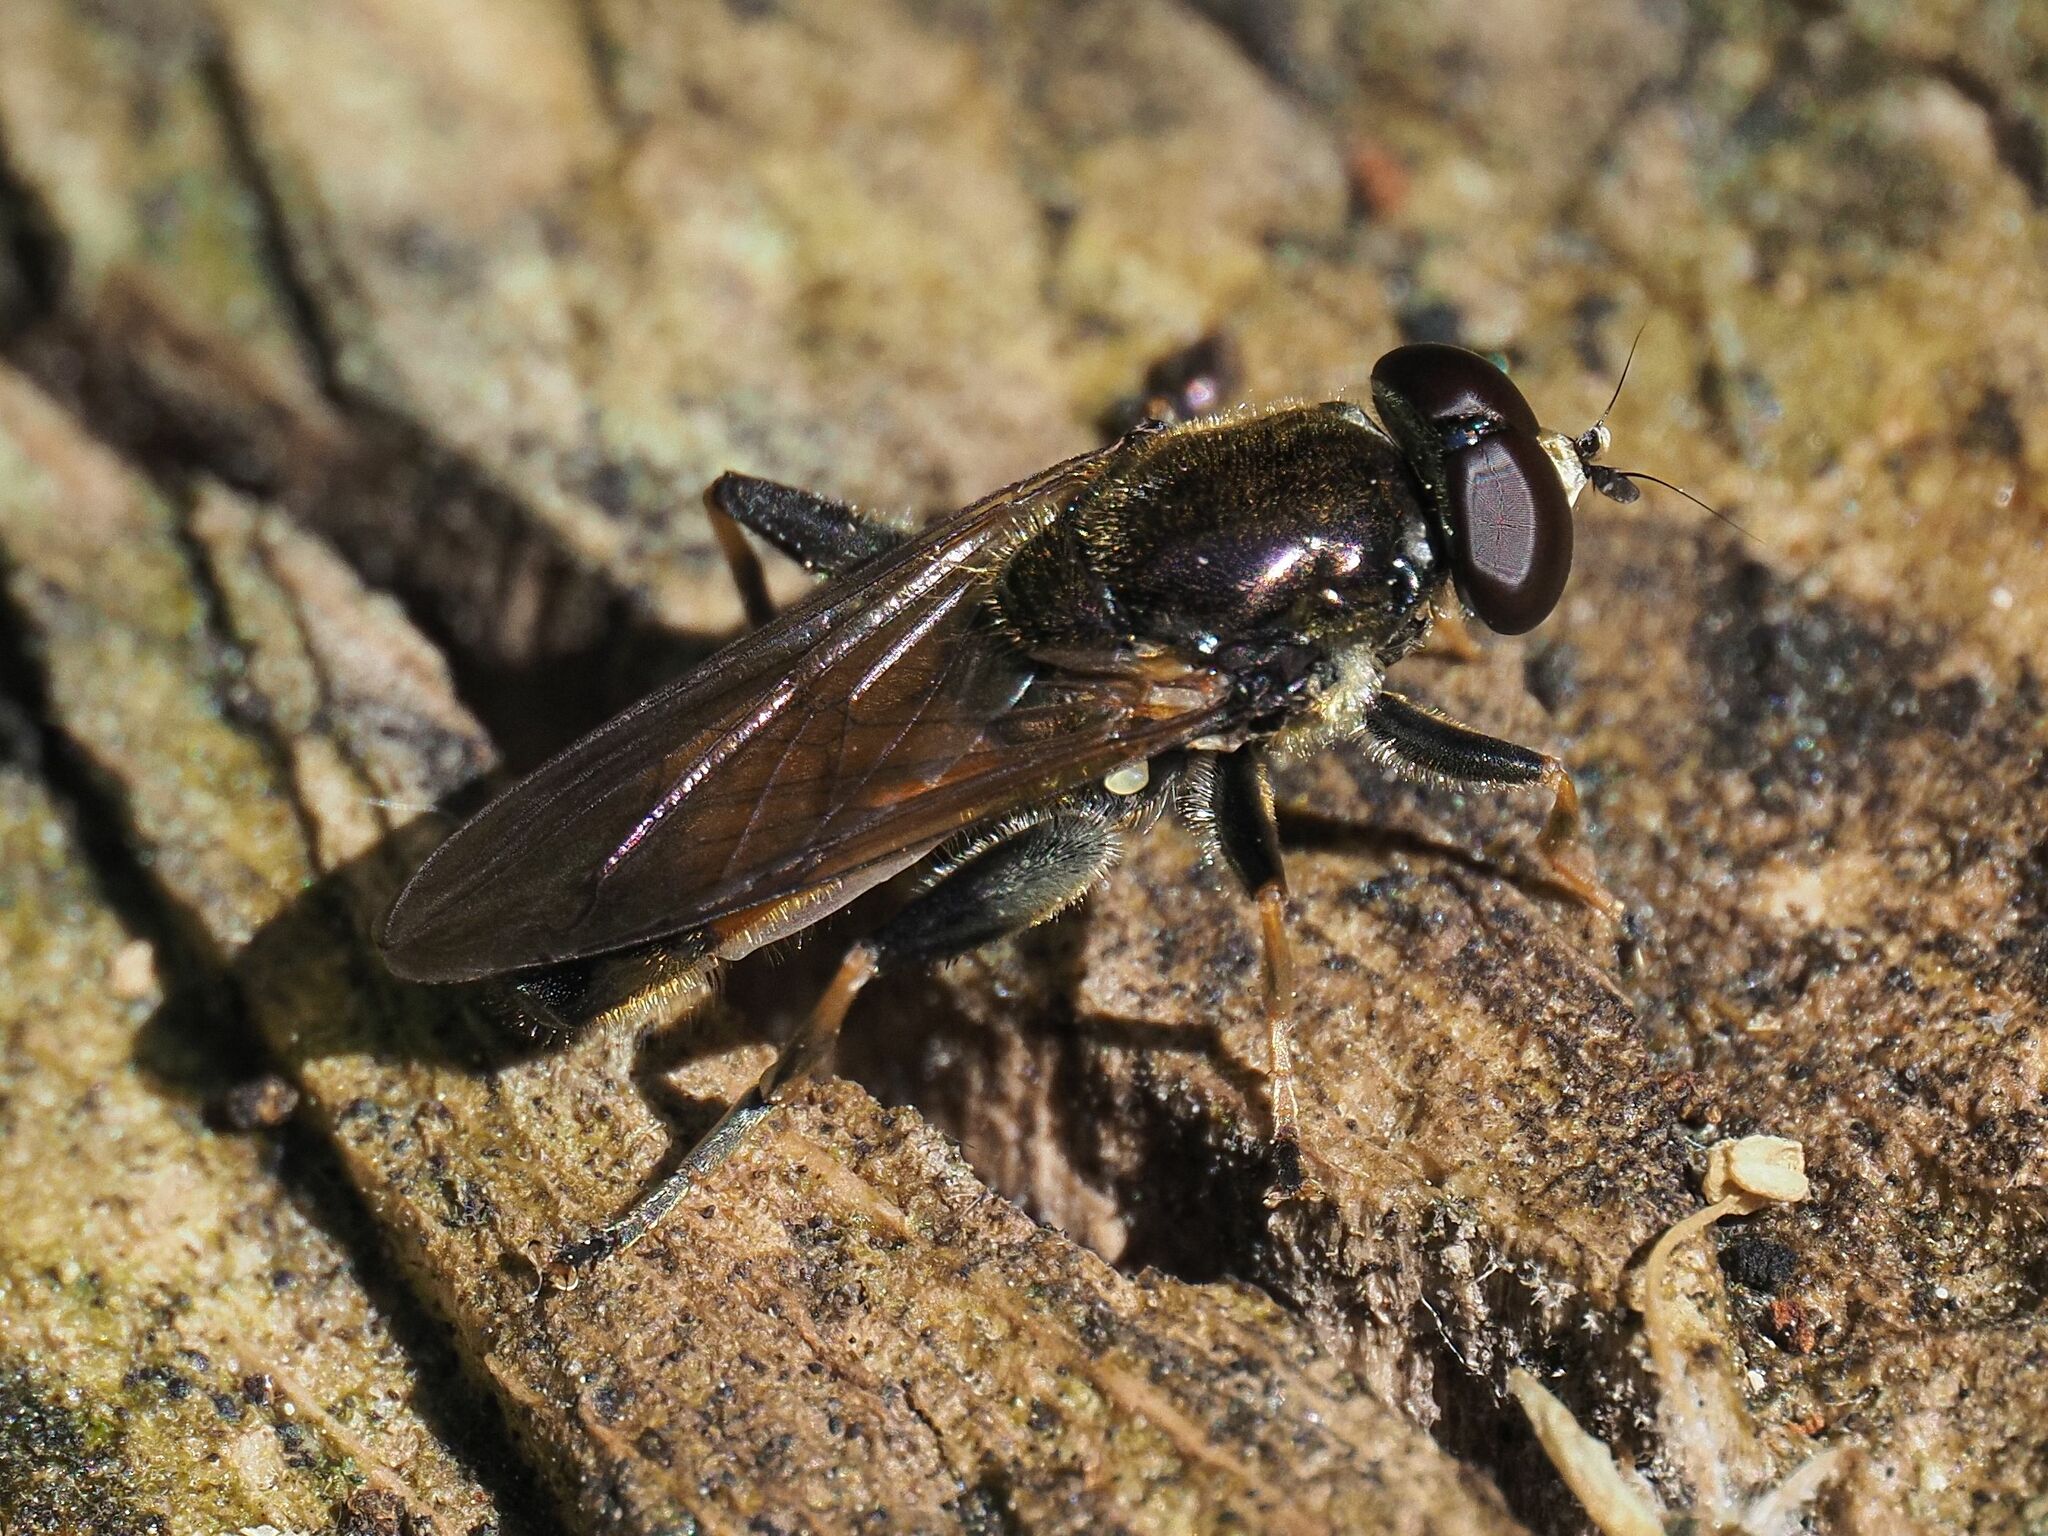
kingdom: Animalia
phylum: Arthropoda
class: Insecta
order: Diptera
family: Syrphidae
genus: Xylota
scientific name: Xylota segnis
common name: Brown-toed forest fly
